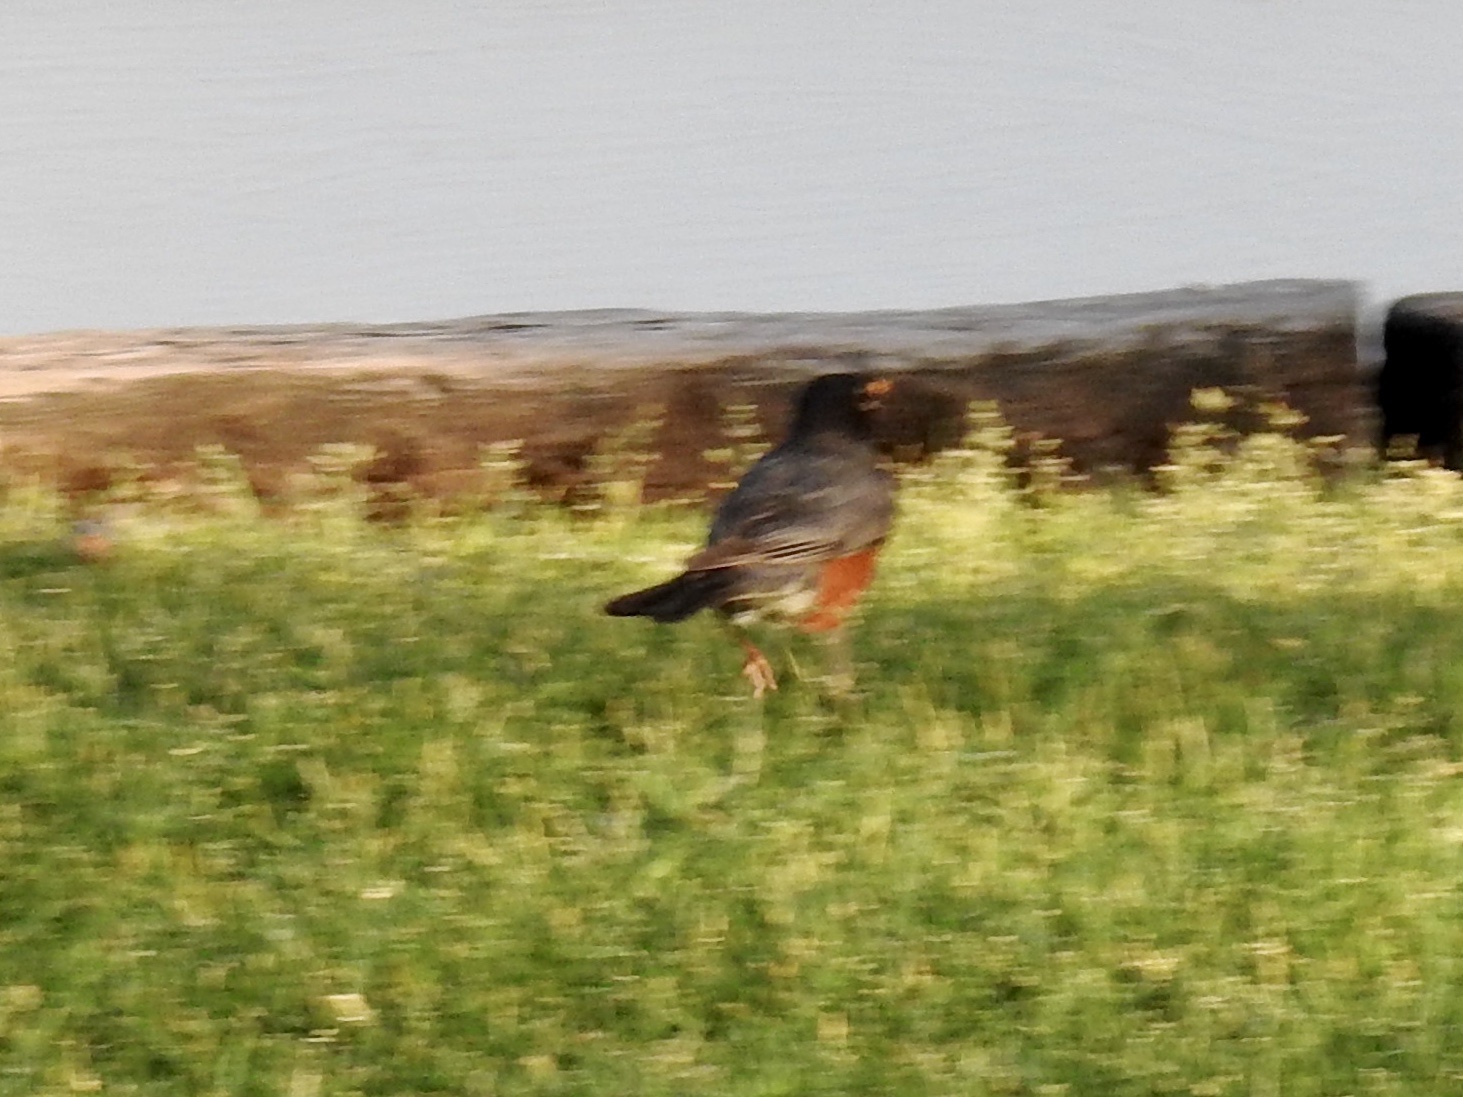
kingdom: Animalia
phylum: Chordata
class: Aves
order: Passeriformes
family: Turdidae
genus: Turdus
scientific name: Turdus migratorius
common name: American robin
